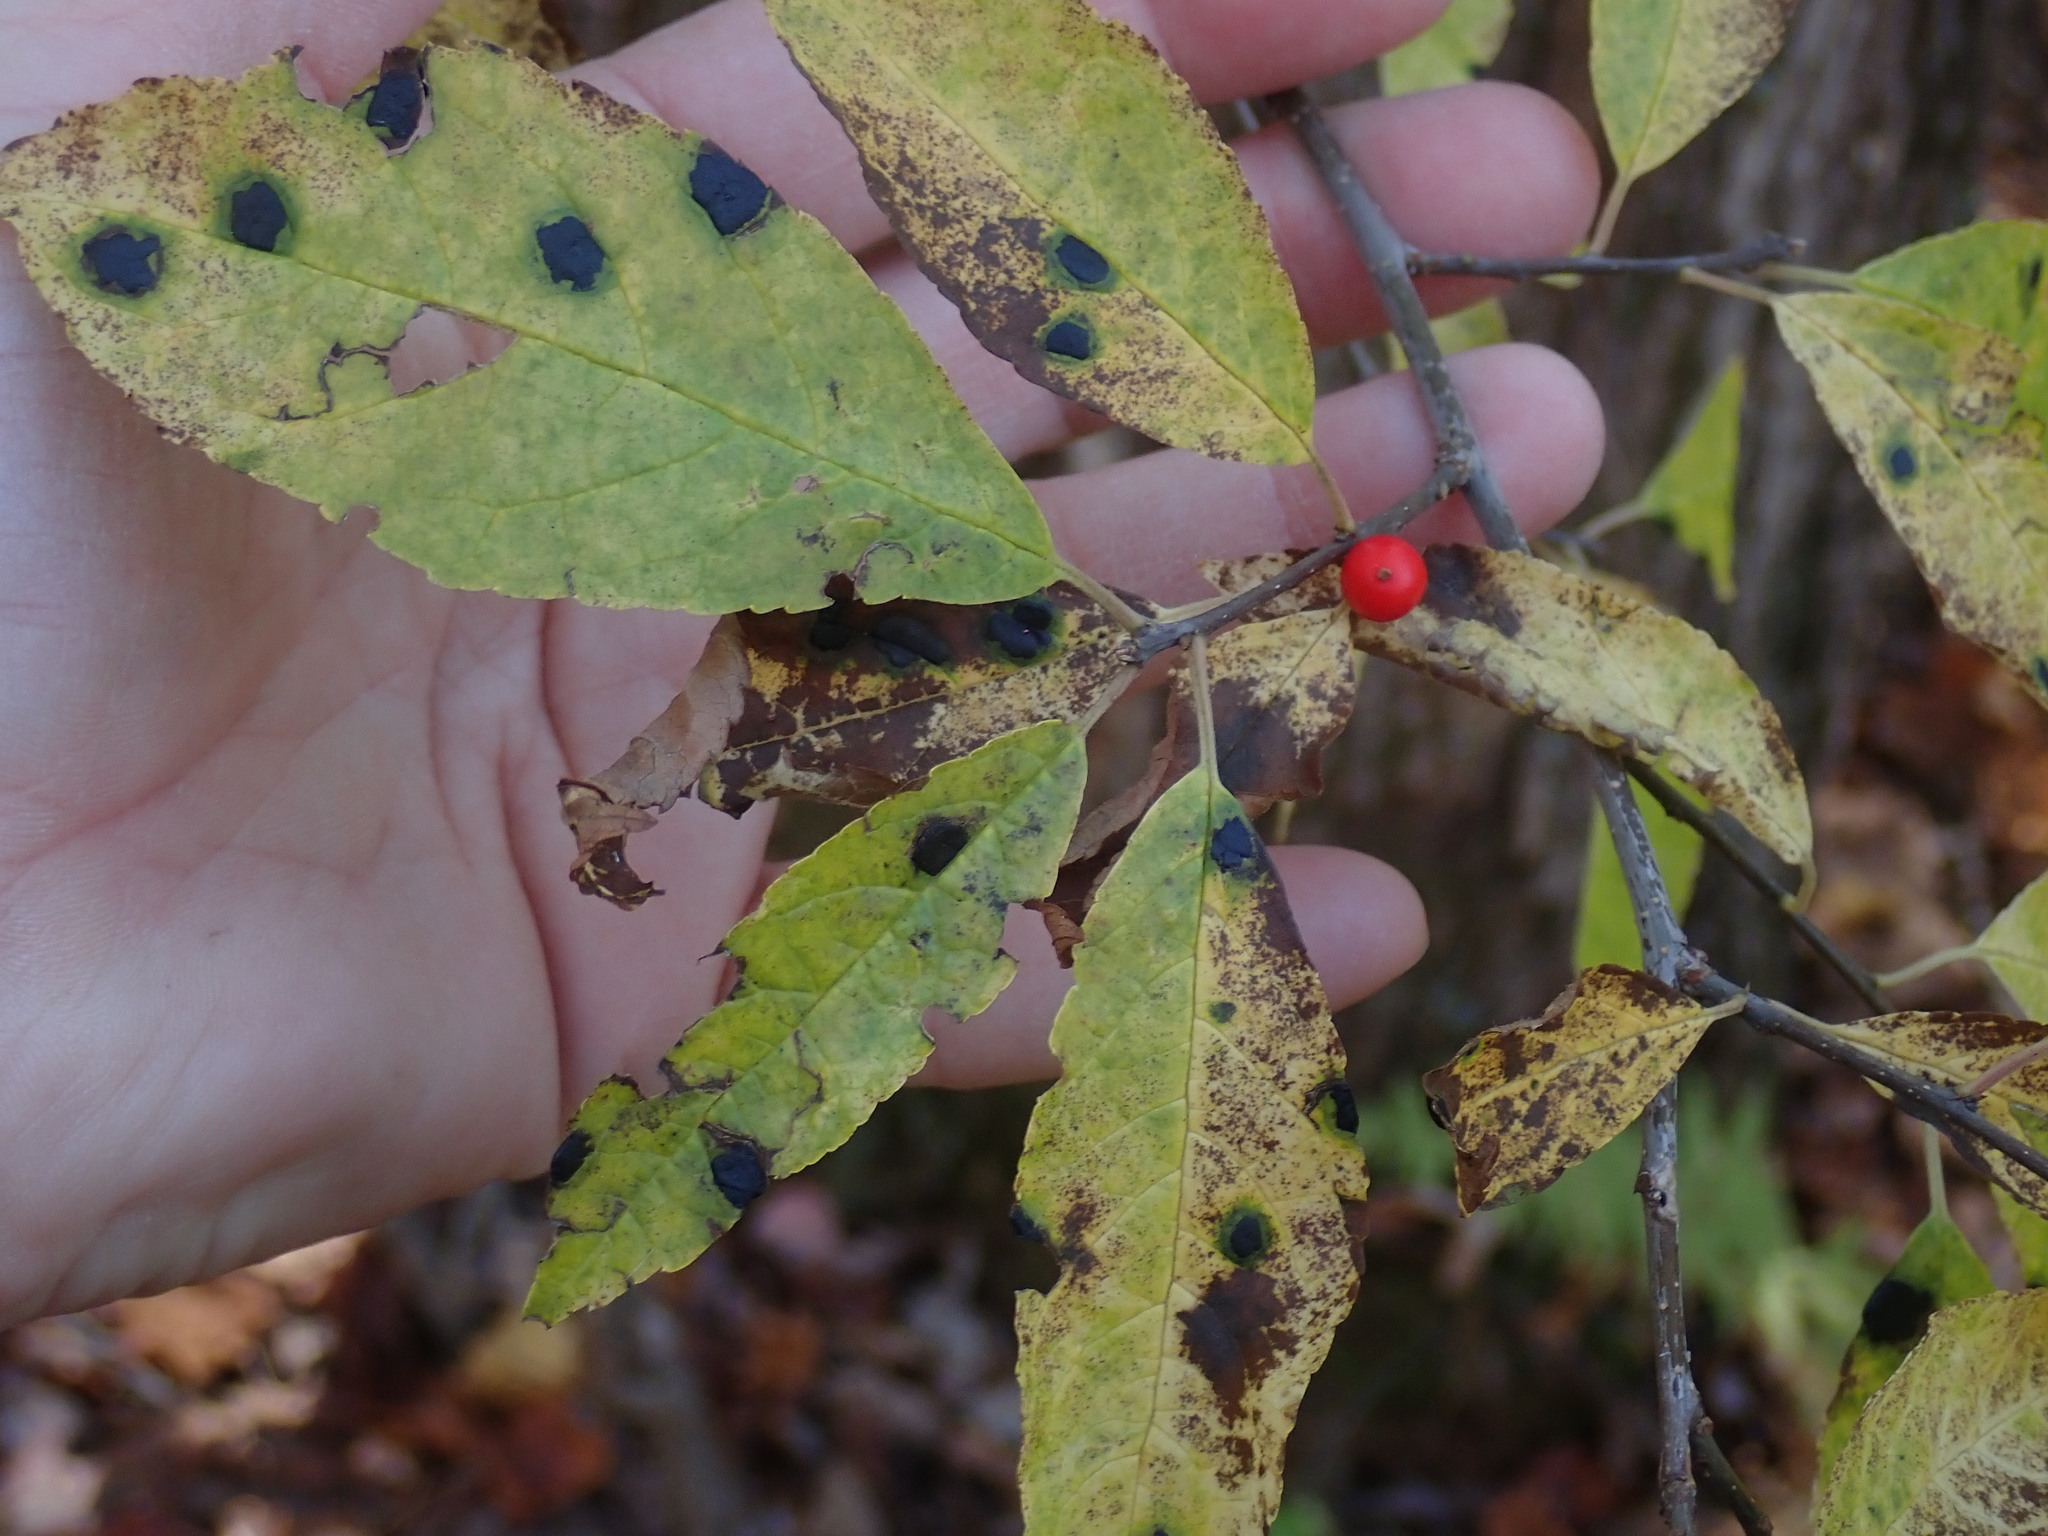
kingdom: Plantae
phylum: Tracheophyta
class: Magnoliopsida
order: Aquifoliales
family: Aquifoliaceae
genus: Ilex
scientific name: Ilex verticillata
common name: Virginia winterberry
